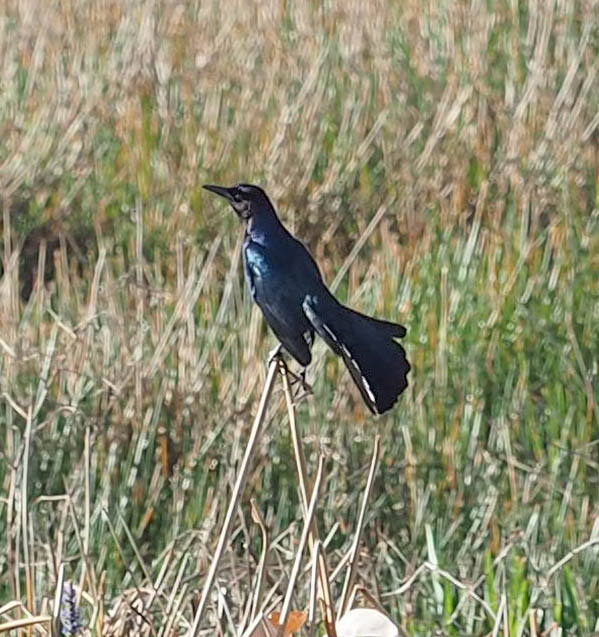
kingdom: Animalia
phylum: Chordata
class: Aves
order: Passeriformes
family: Icteridae
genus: Quiscalus
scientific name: Quiscalus major
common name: Boat-tailed grackle
